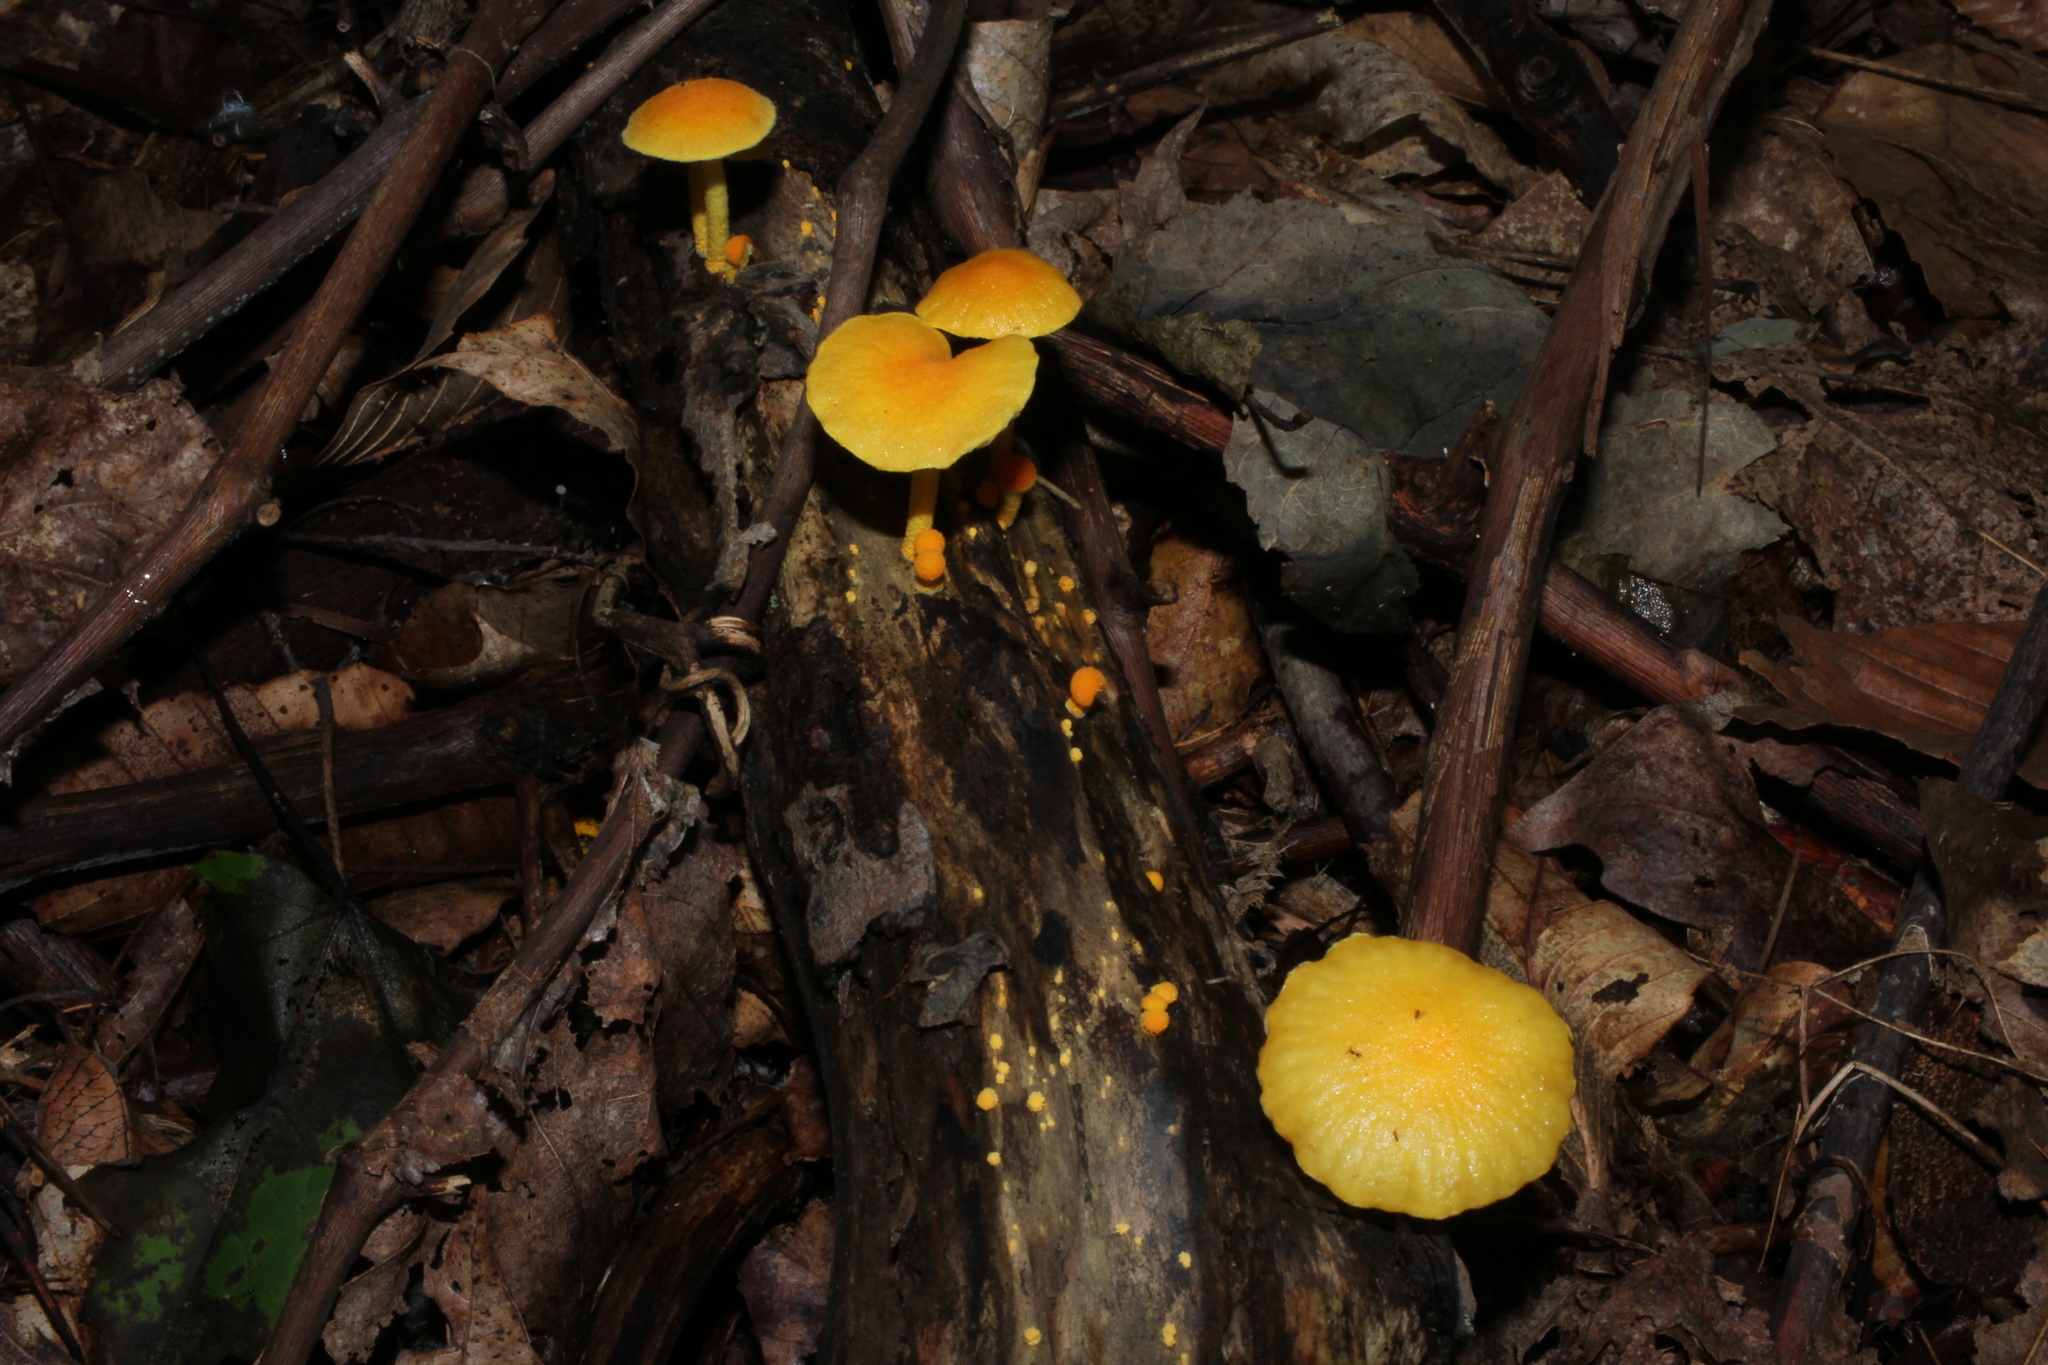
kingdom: Fungi
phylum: Basidiomycota
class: Agaricomycetes
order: Agaricales
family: Physalacriaceae
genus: Cyptotrama
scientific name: Cyptotrama chrysopepla
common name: Golden coincap
